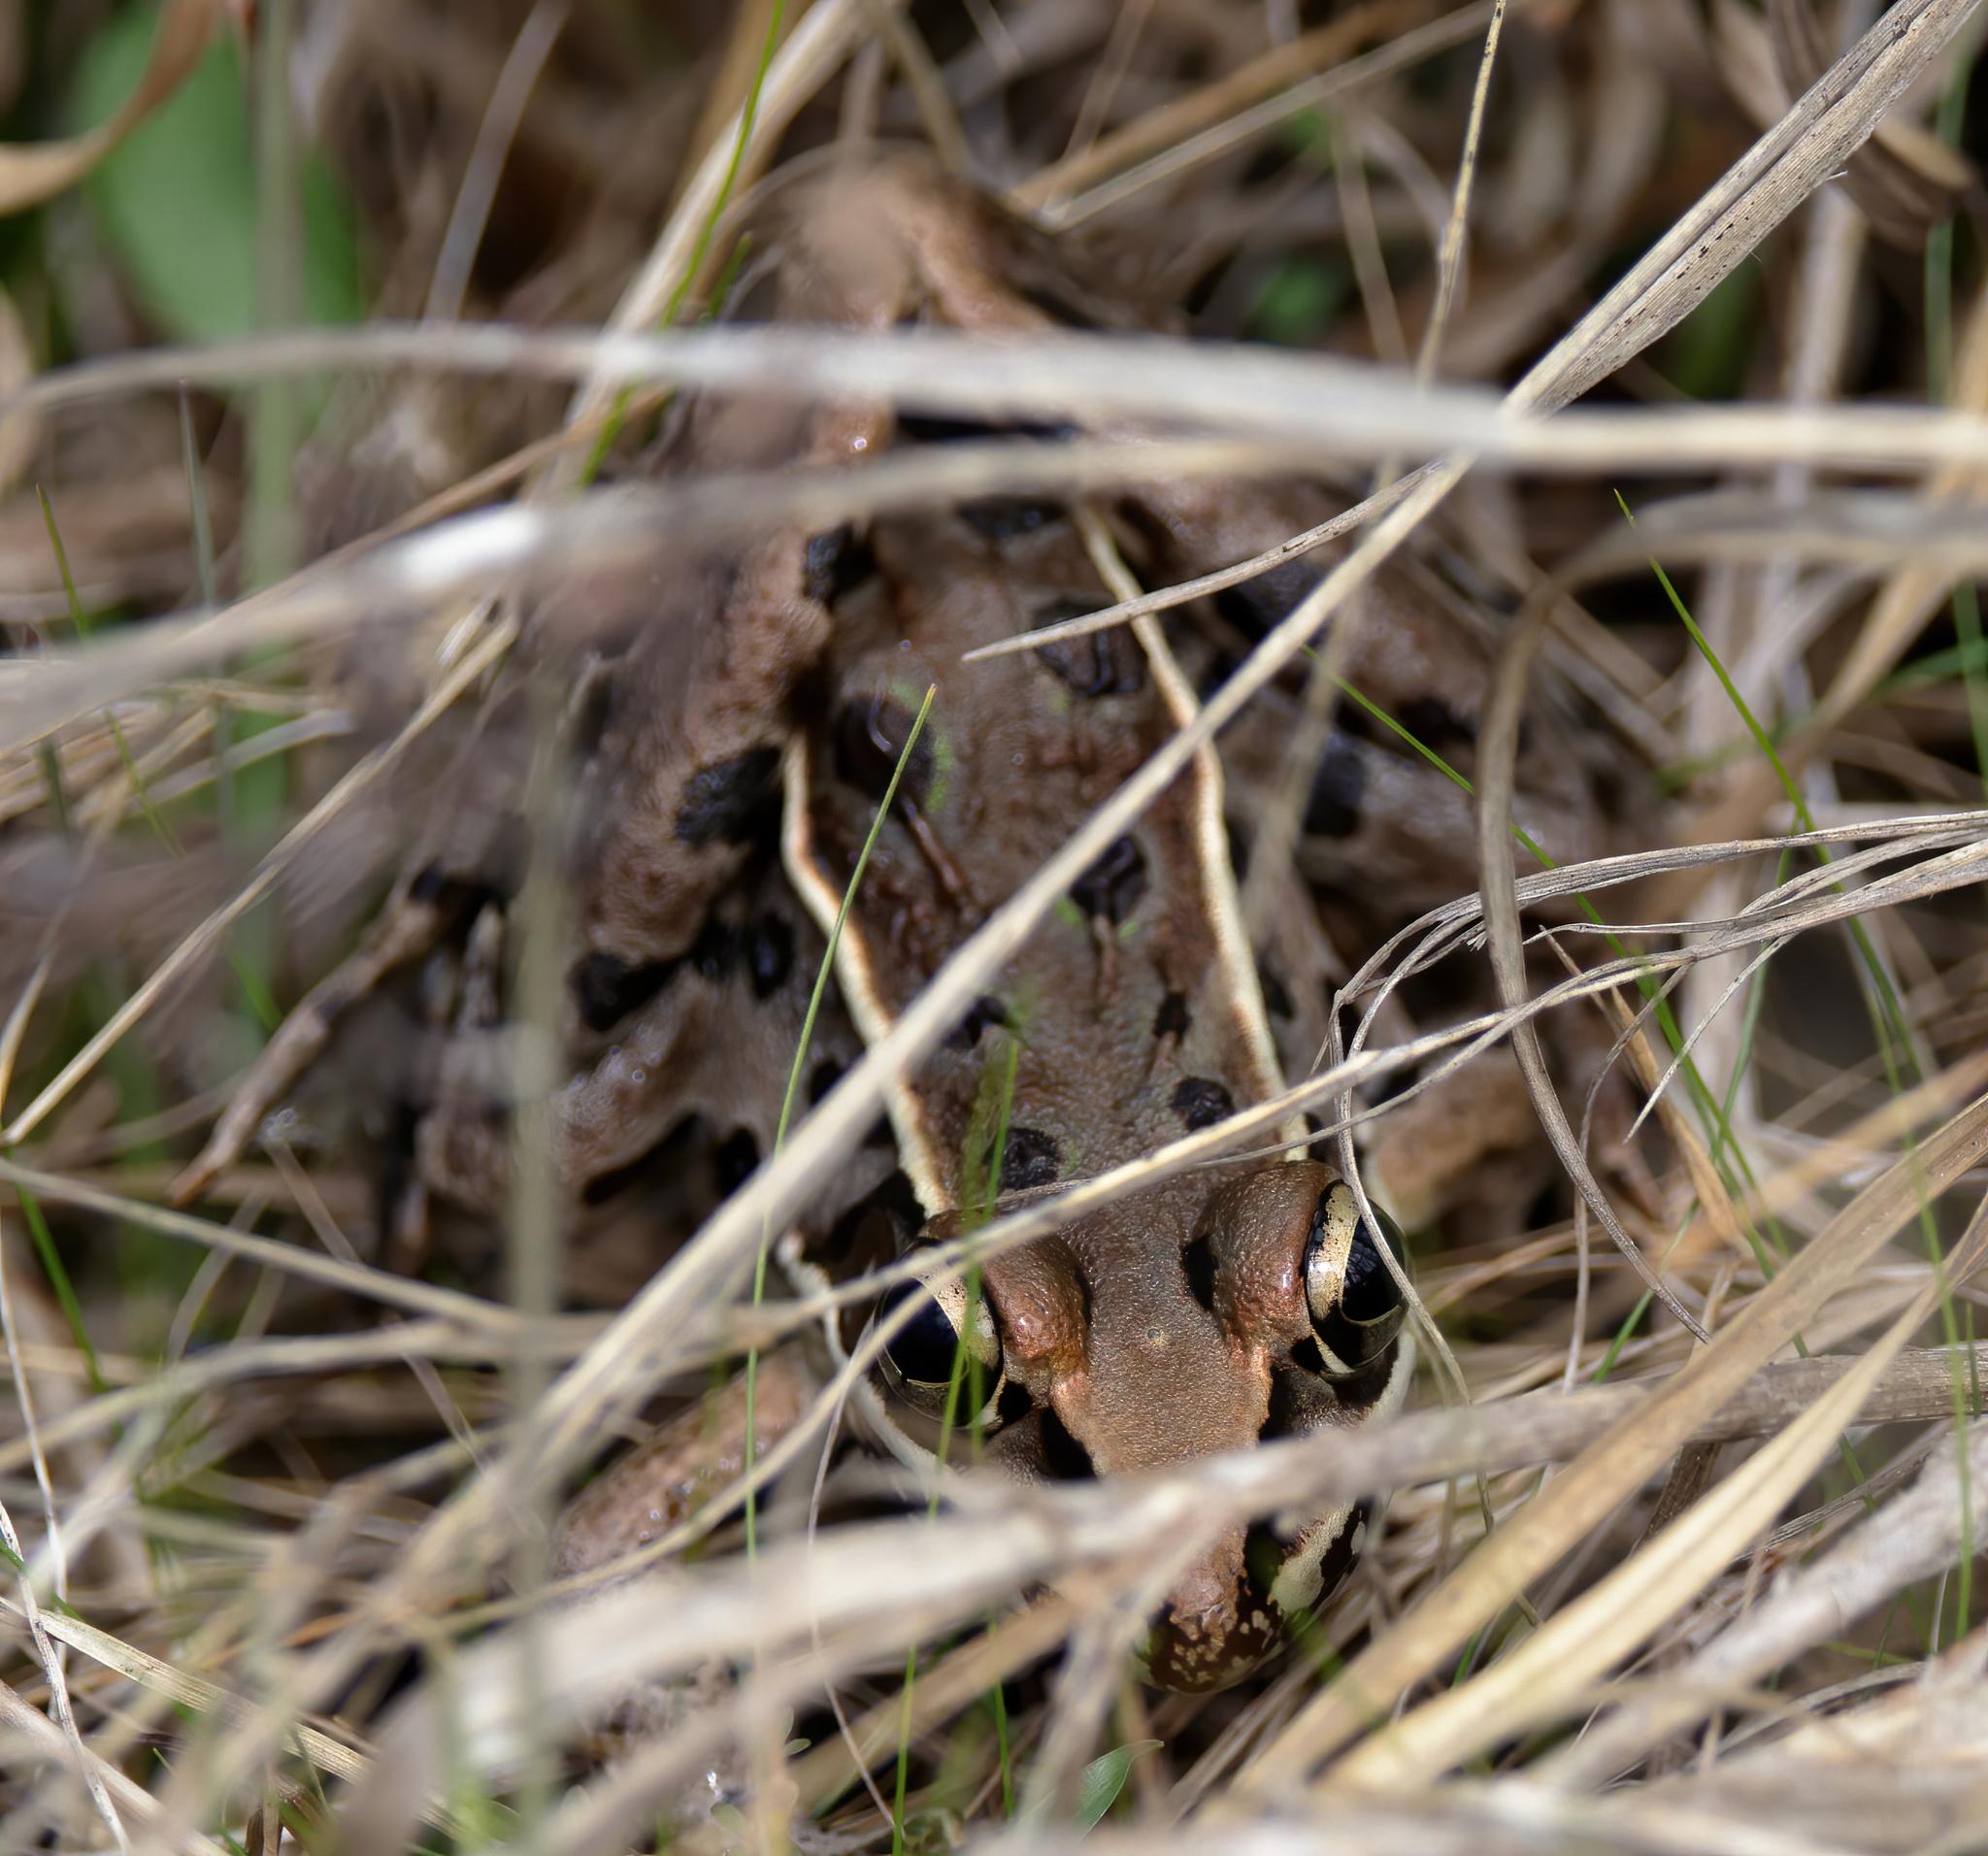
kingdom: Animalia
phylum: Chordata
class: Amphibia
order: Anura
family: Ranidae
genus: Lithobates
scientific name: Lithobates sphenocephalus
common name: Southern leopard frog
